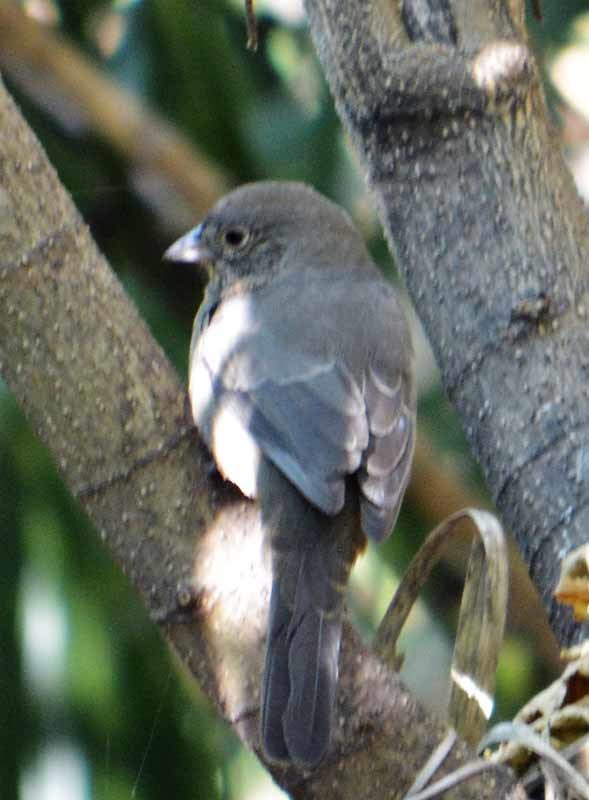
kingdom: Animalia
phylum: Chordata
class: Aves
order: Passeriformes
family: Passerellidae
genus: Melozone
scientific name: Melozone fusca
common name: Canyon towhee
